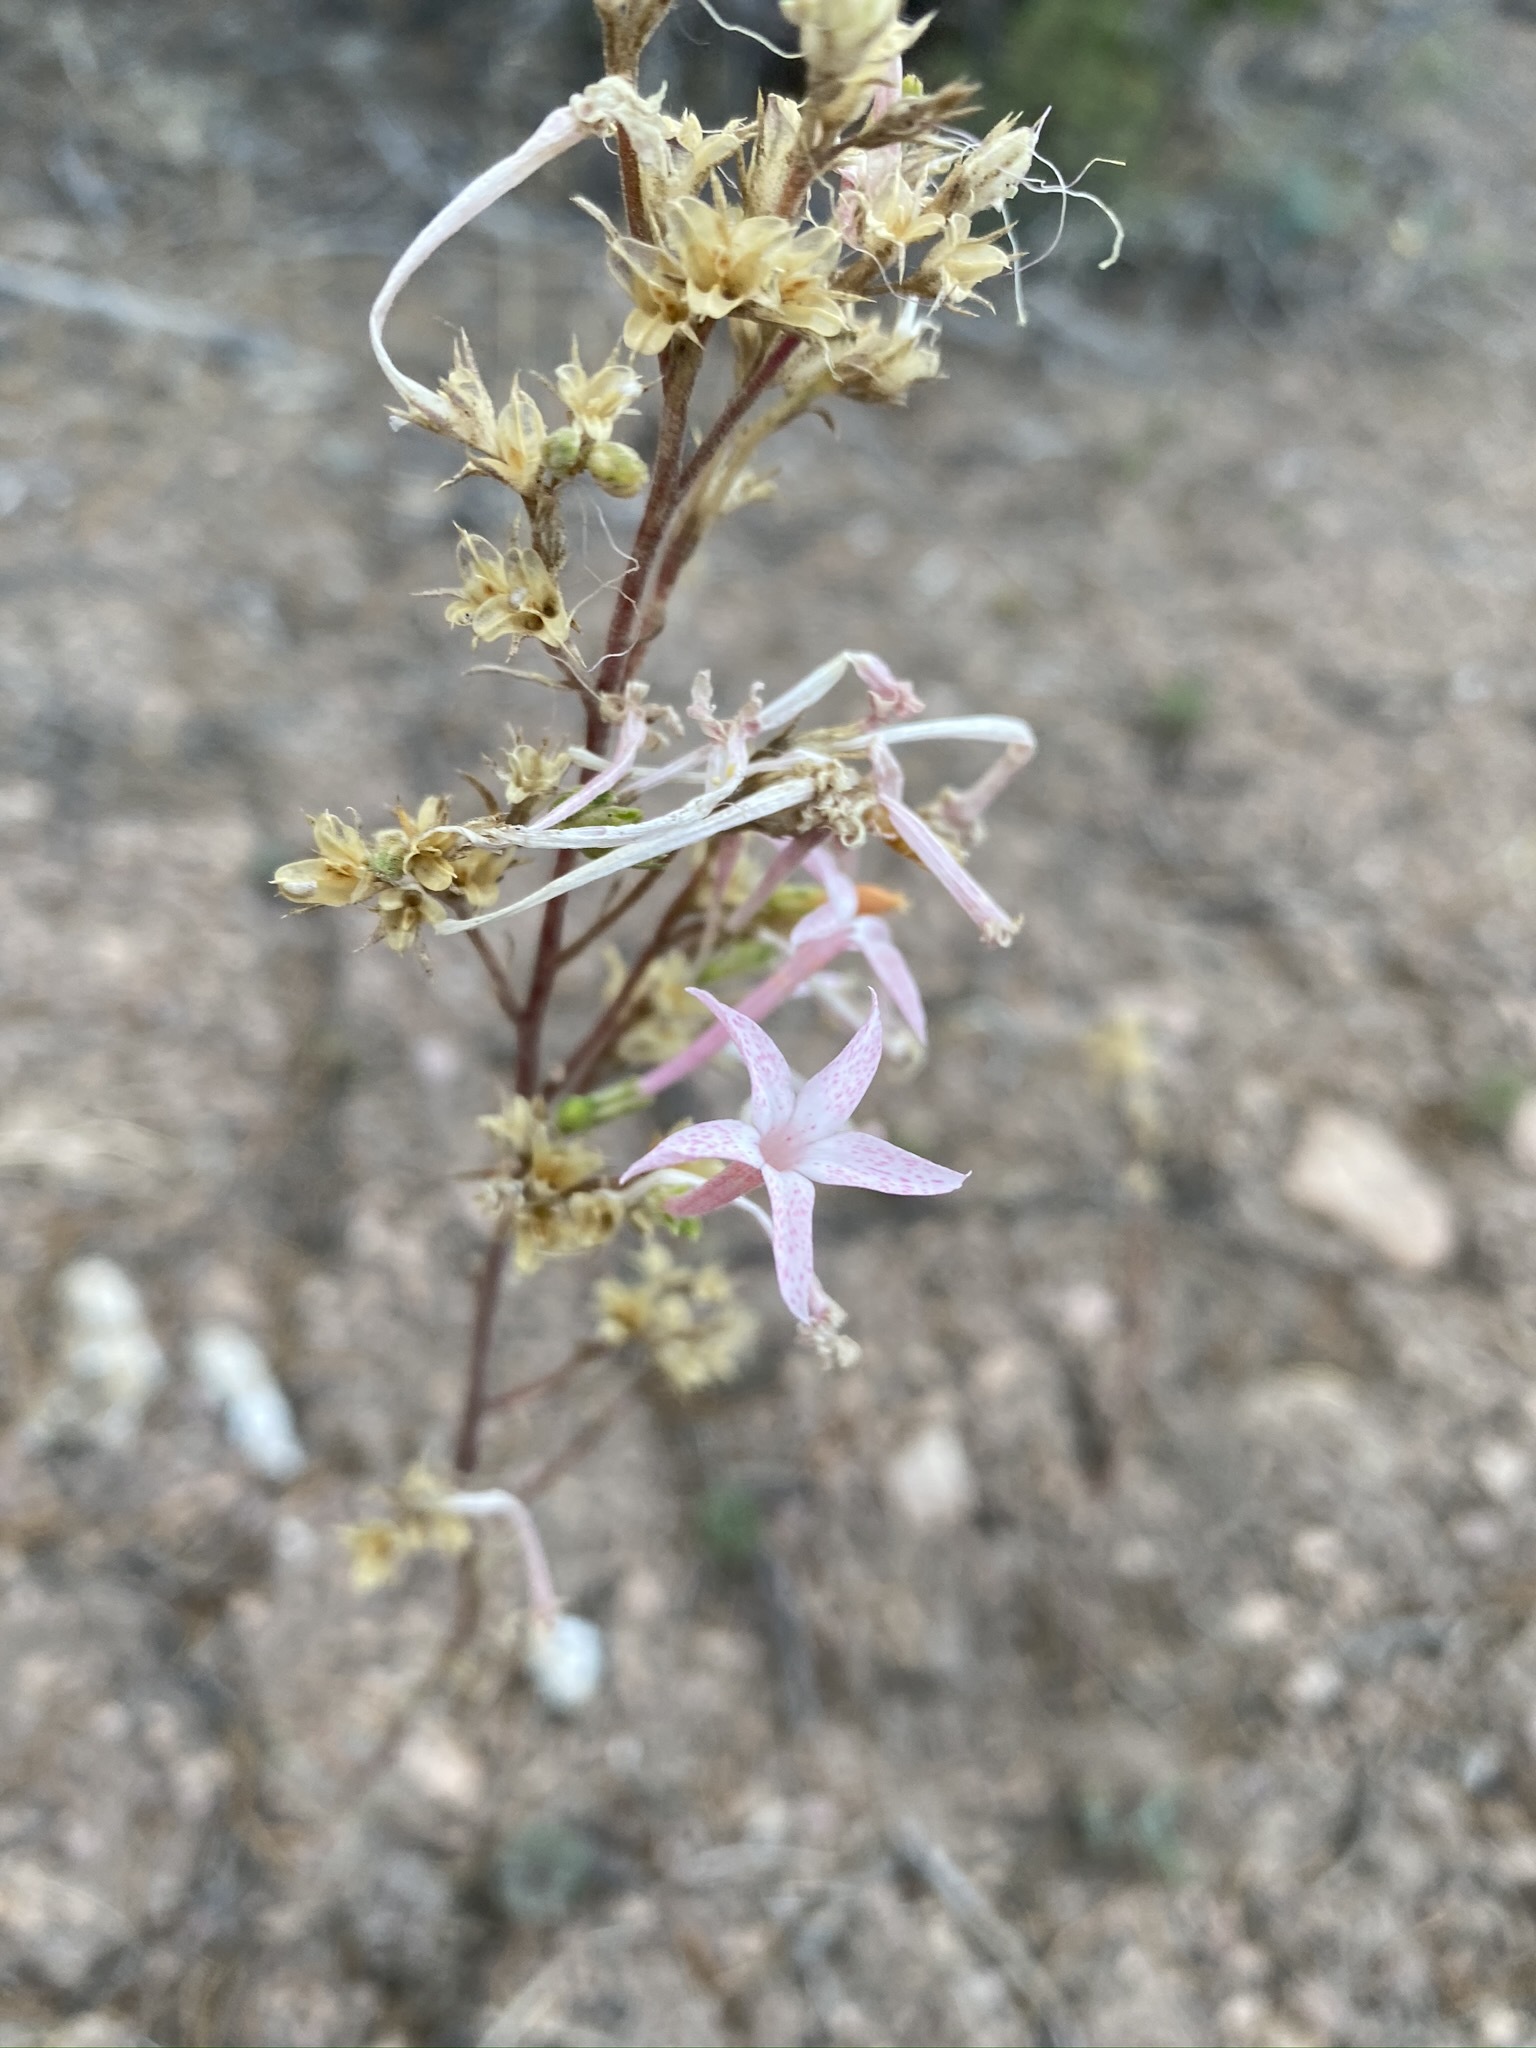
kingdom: Plantae
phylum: Tracheophyta
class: Magnoliopsida
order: Ericales
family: Polemoniaceae
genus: Ipomopsis
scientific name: Ipomopsis tenuituba
